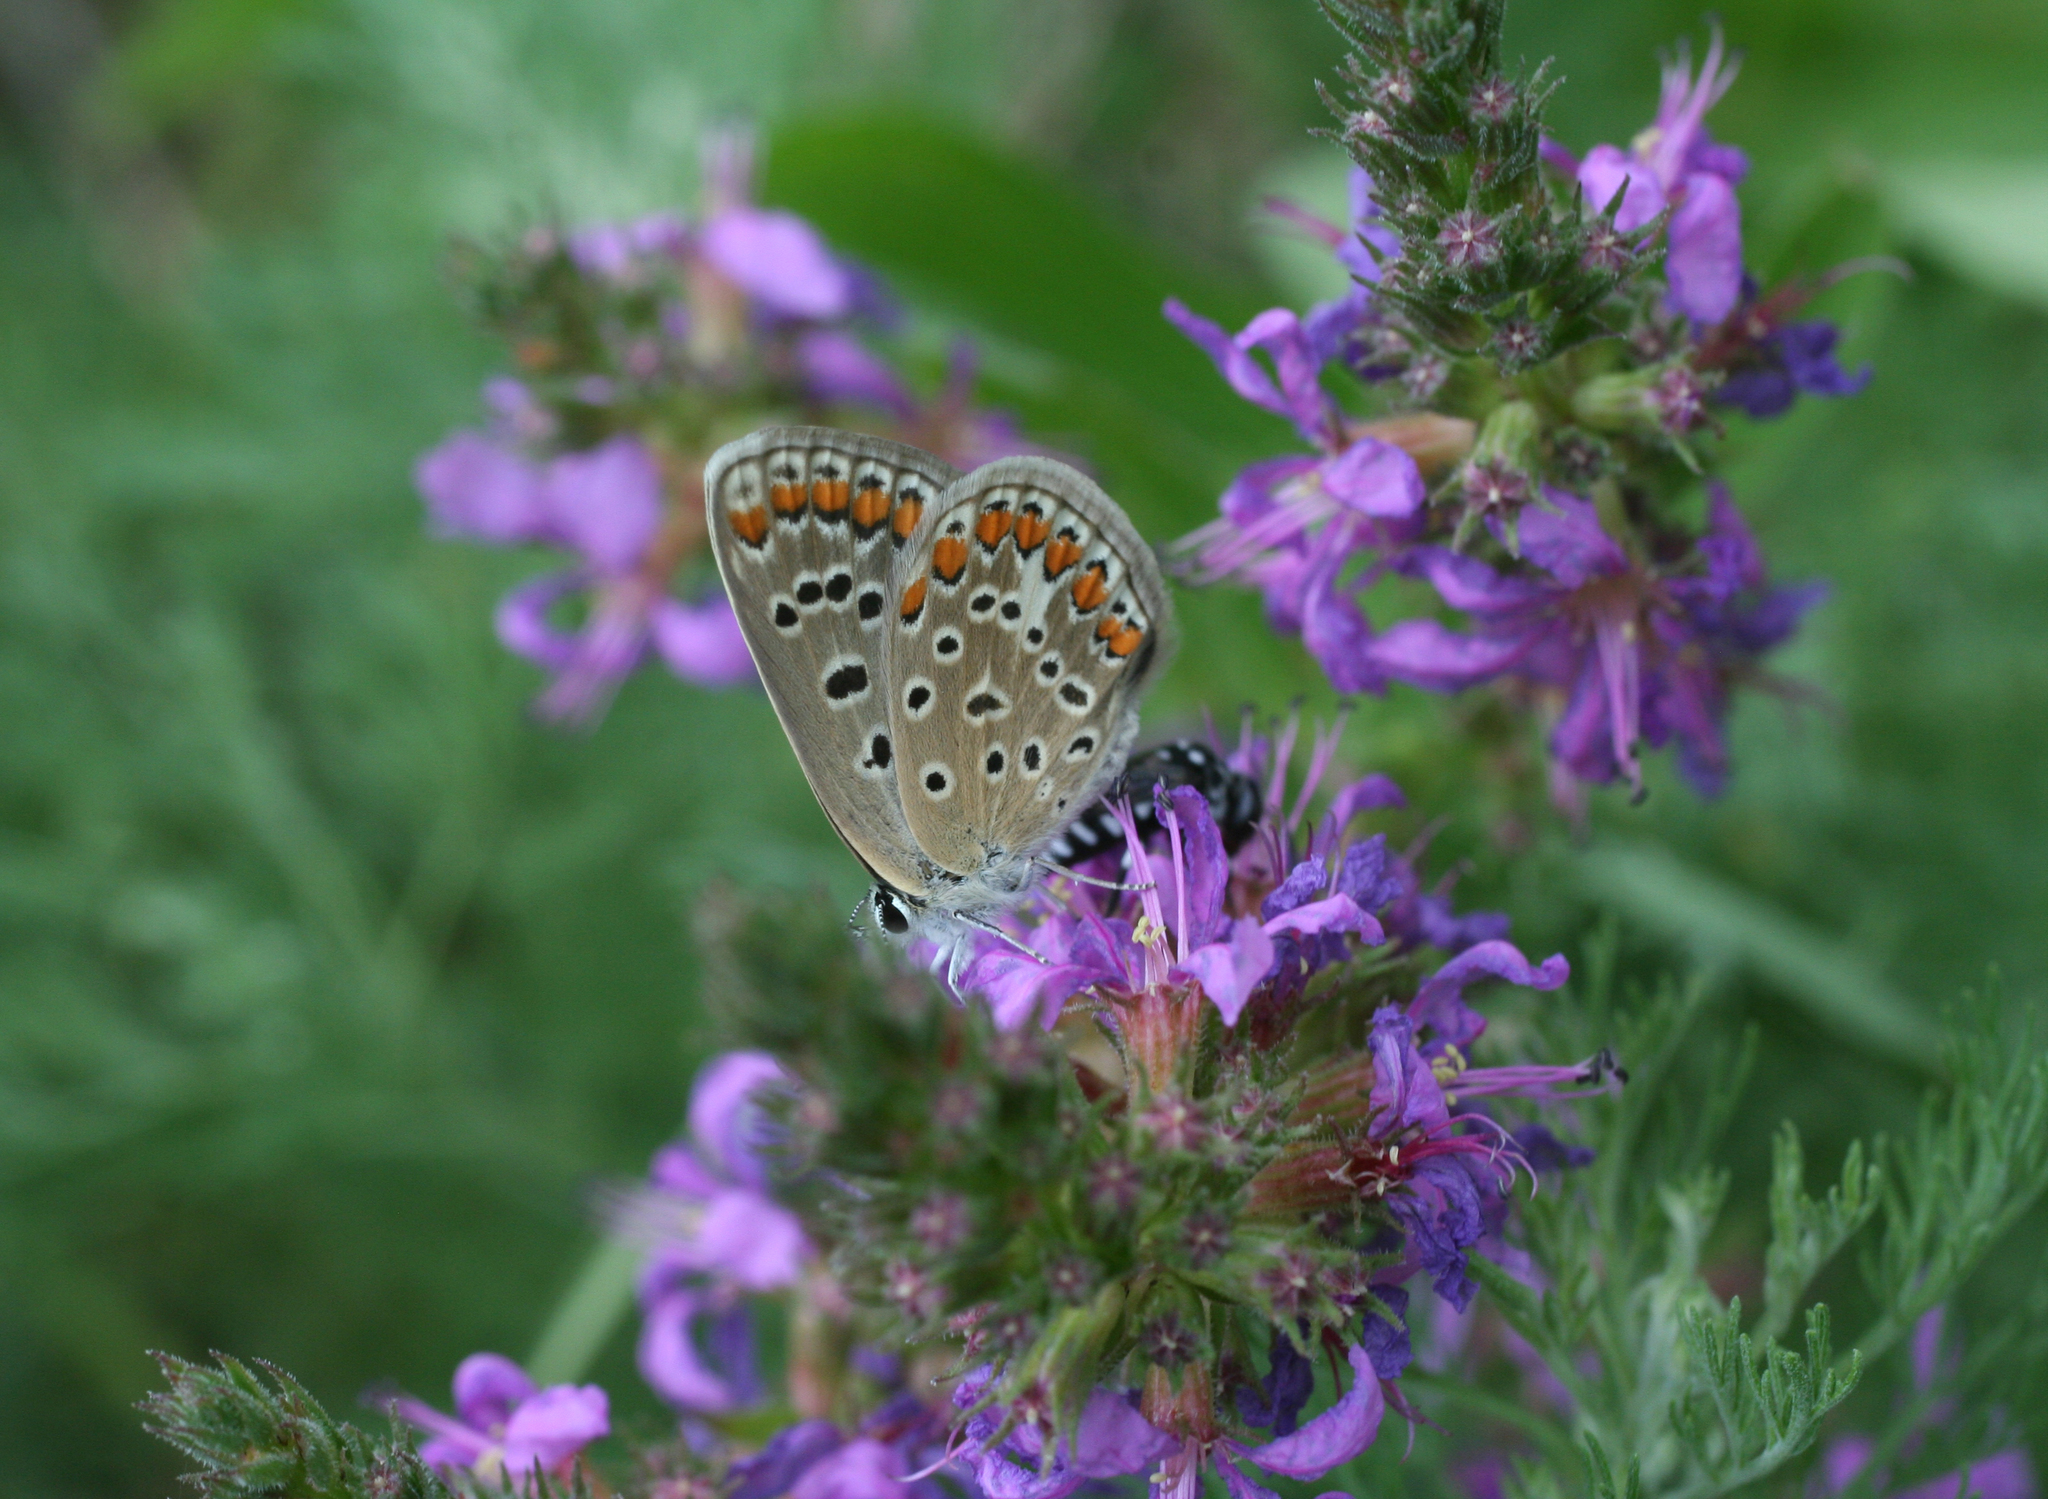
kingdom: Animalia
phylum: Arthropoda
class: Insecta
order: Lepidoptera
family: Lycaenidae
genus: Polyommatus
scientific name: Polyommatus icarus
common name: Common blue
